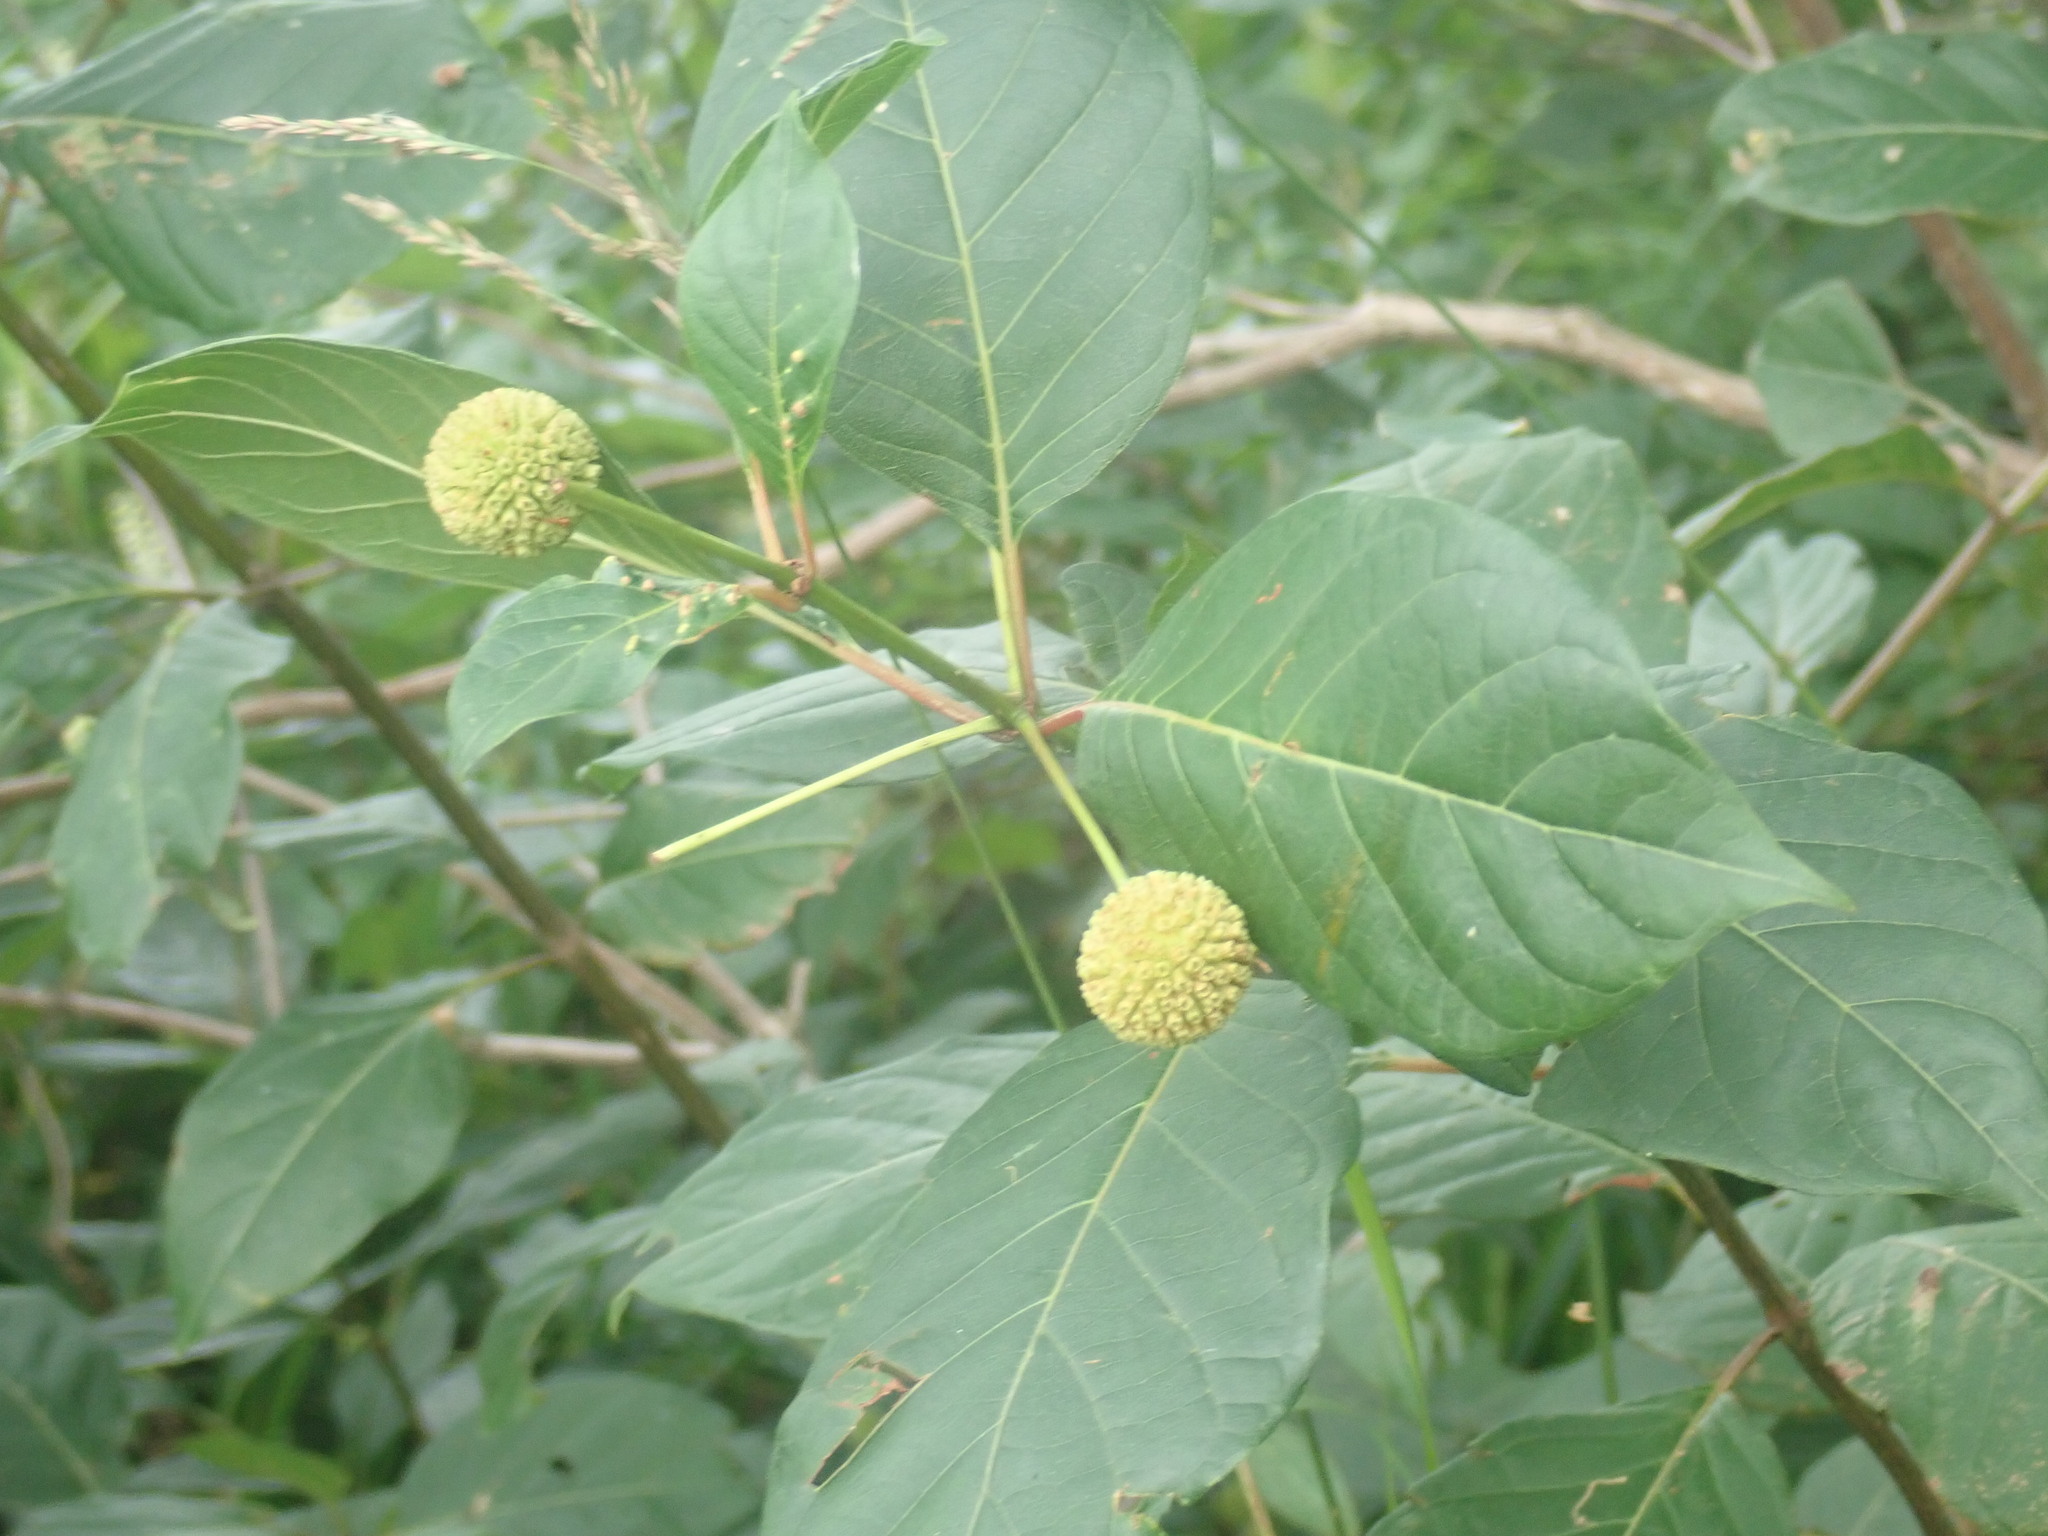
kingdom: Plantae
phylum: Tracheophyta
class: Magnoliopsida
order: Gentianales
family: Rubiaceae
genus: Cephalanthus
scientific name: Cephalanthus occidentalis
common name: Button-willow
